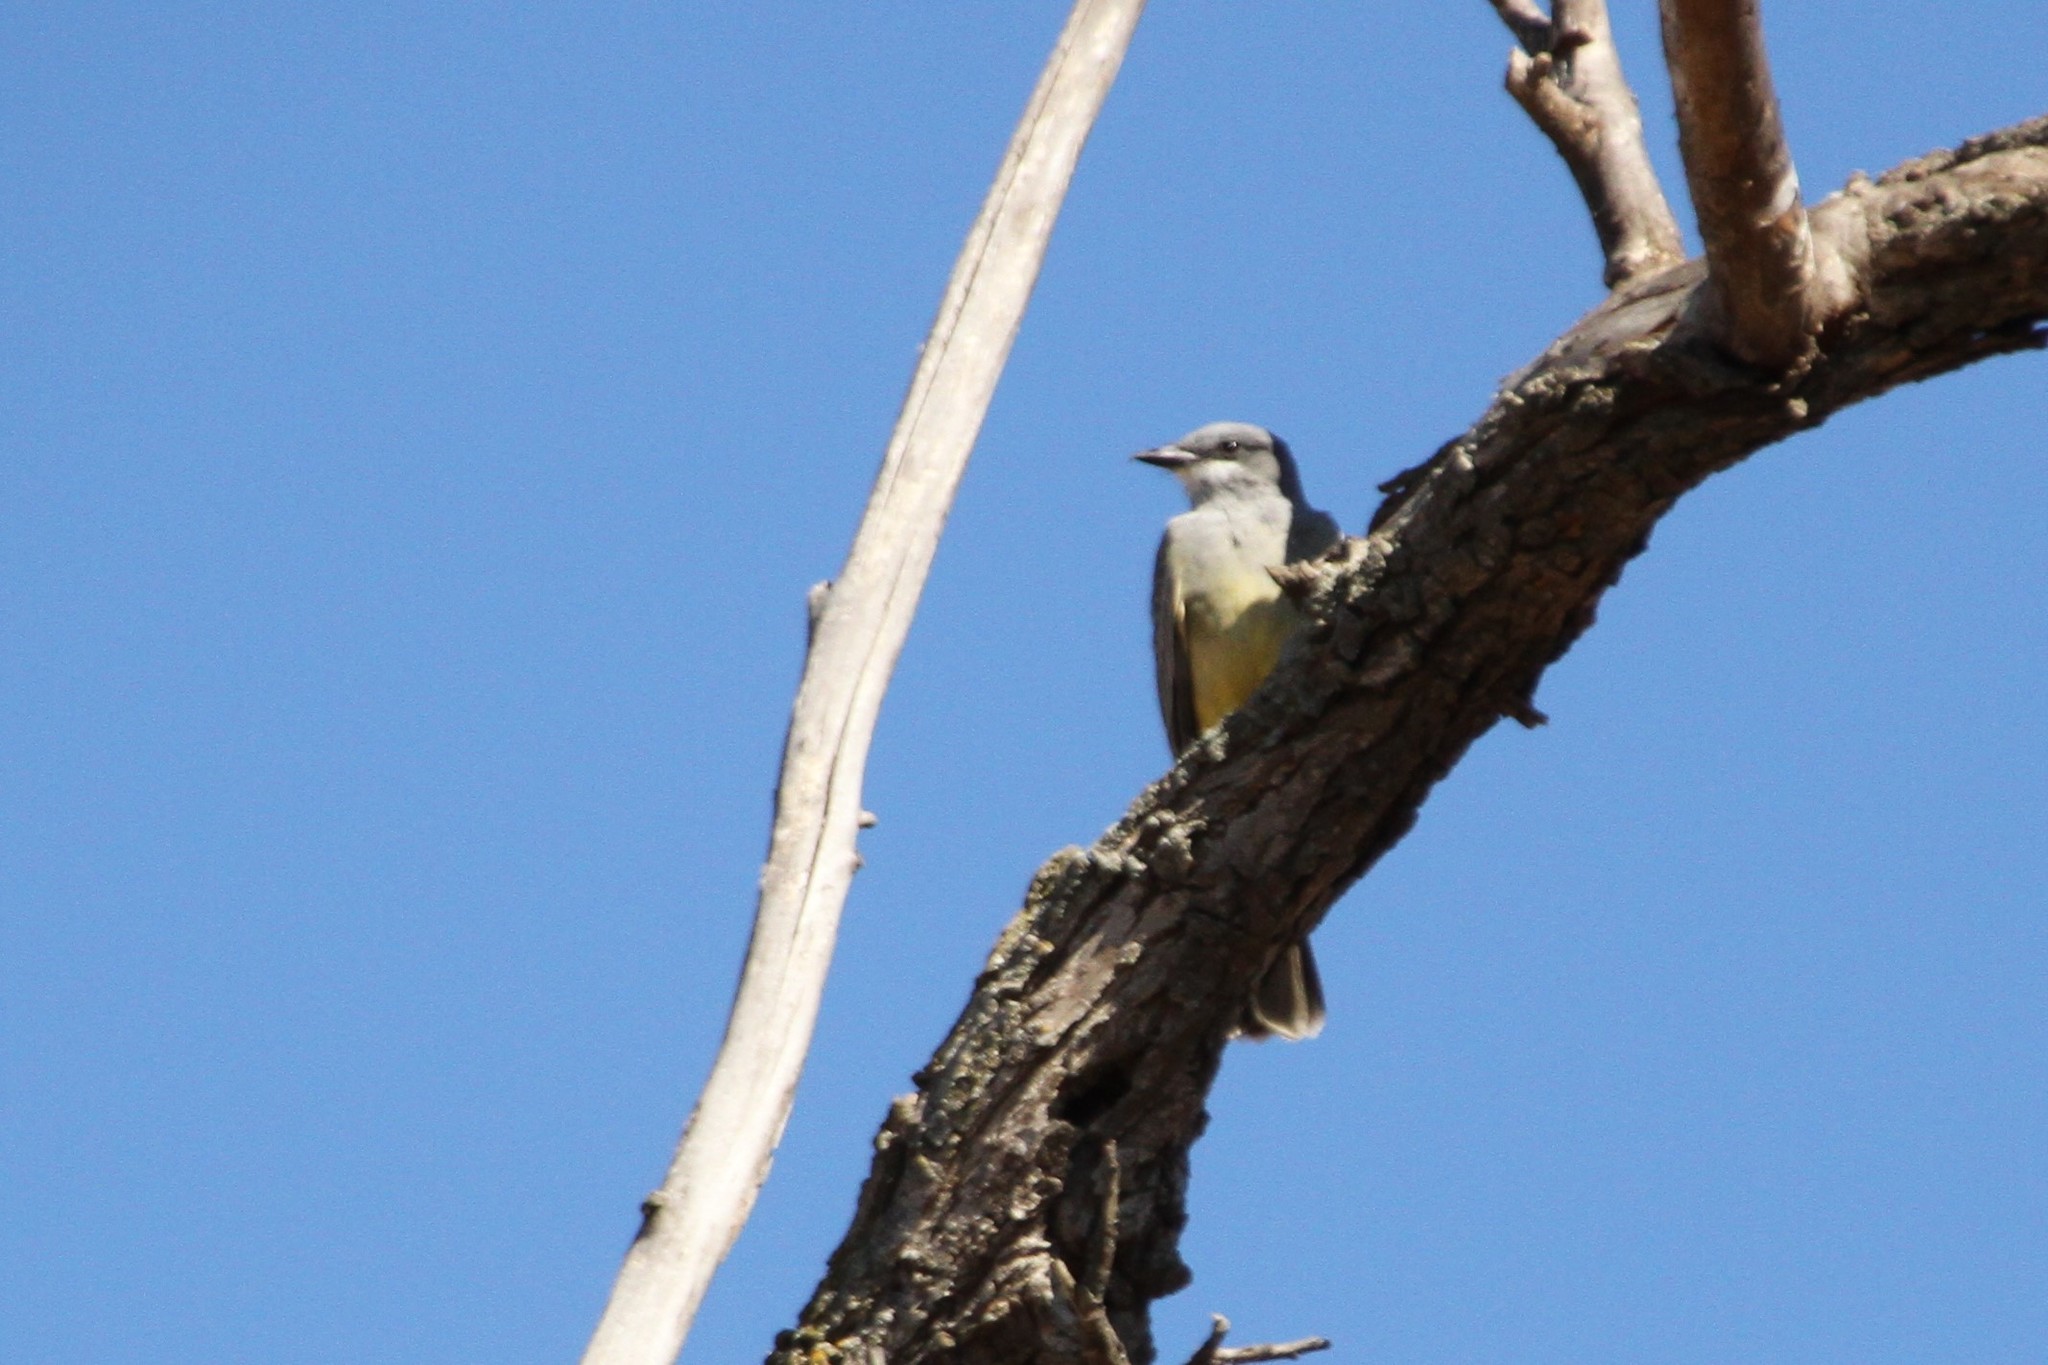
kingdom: Animalia
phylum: Chordata
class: Aves
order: Passeriformes
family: Tyrannidae
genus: Tyrannus
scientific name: Tyrannus vociferans
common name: Cassin's kingbird
